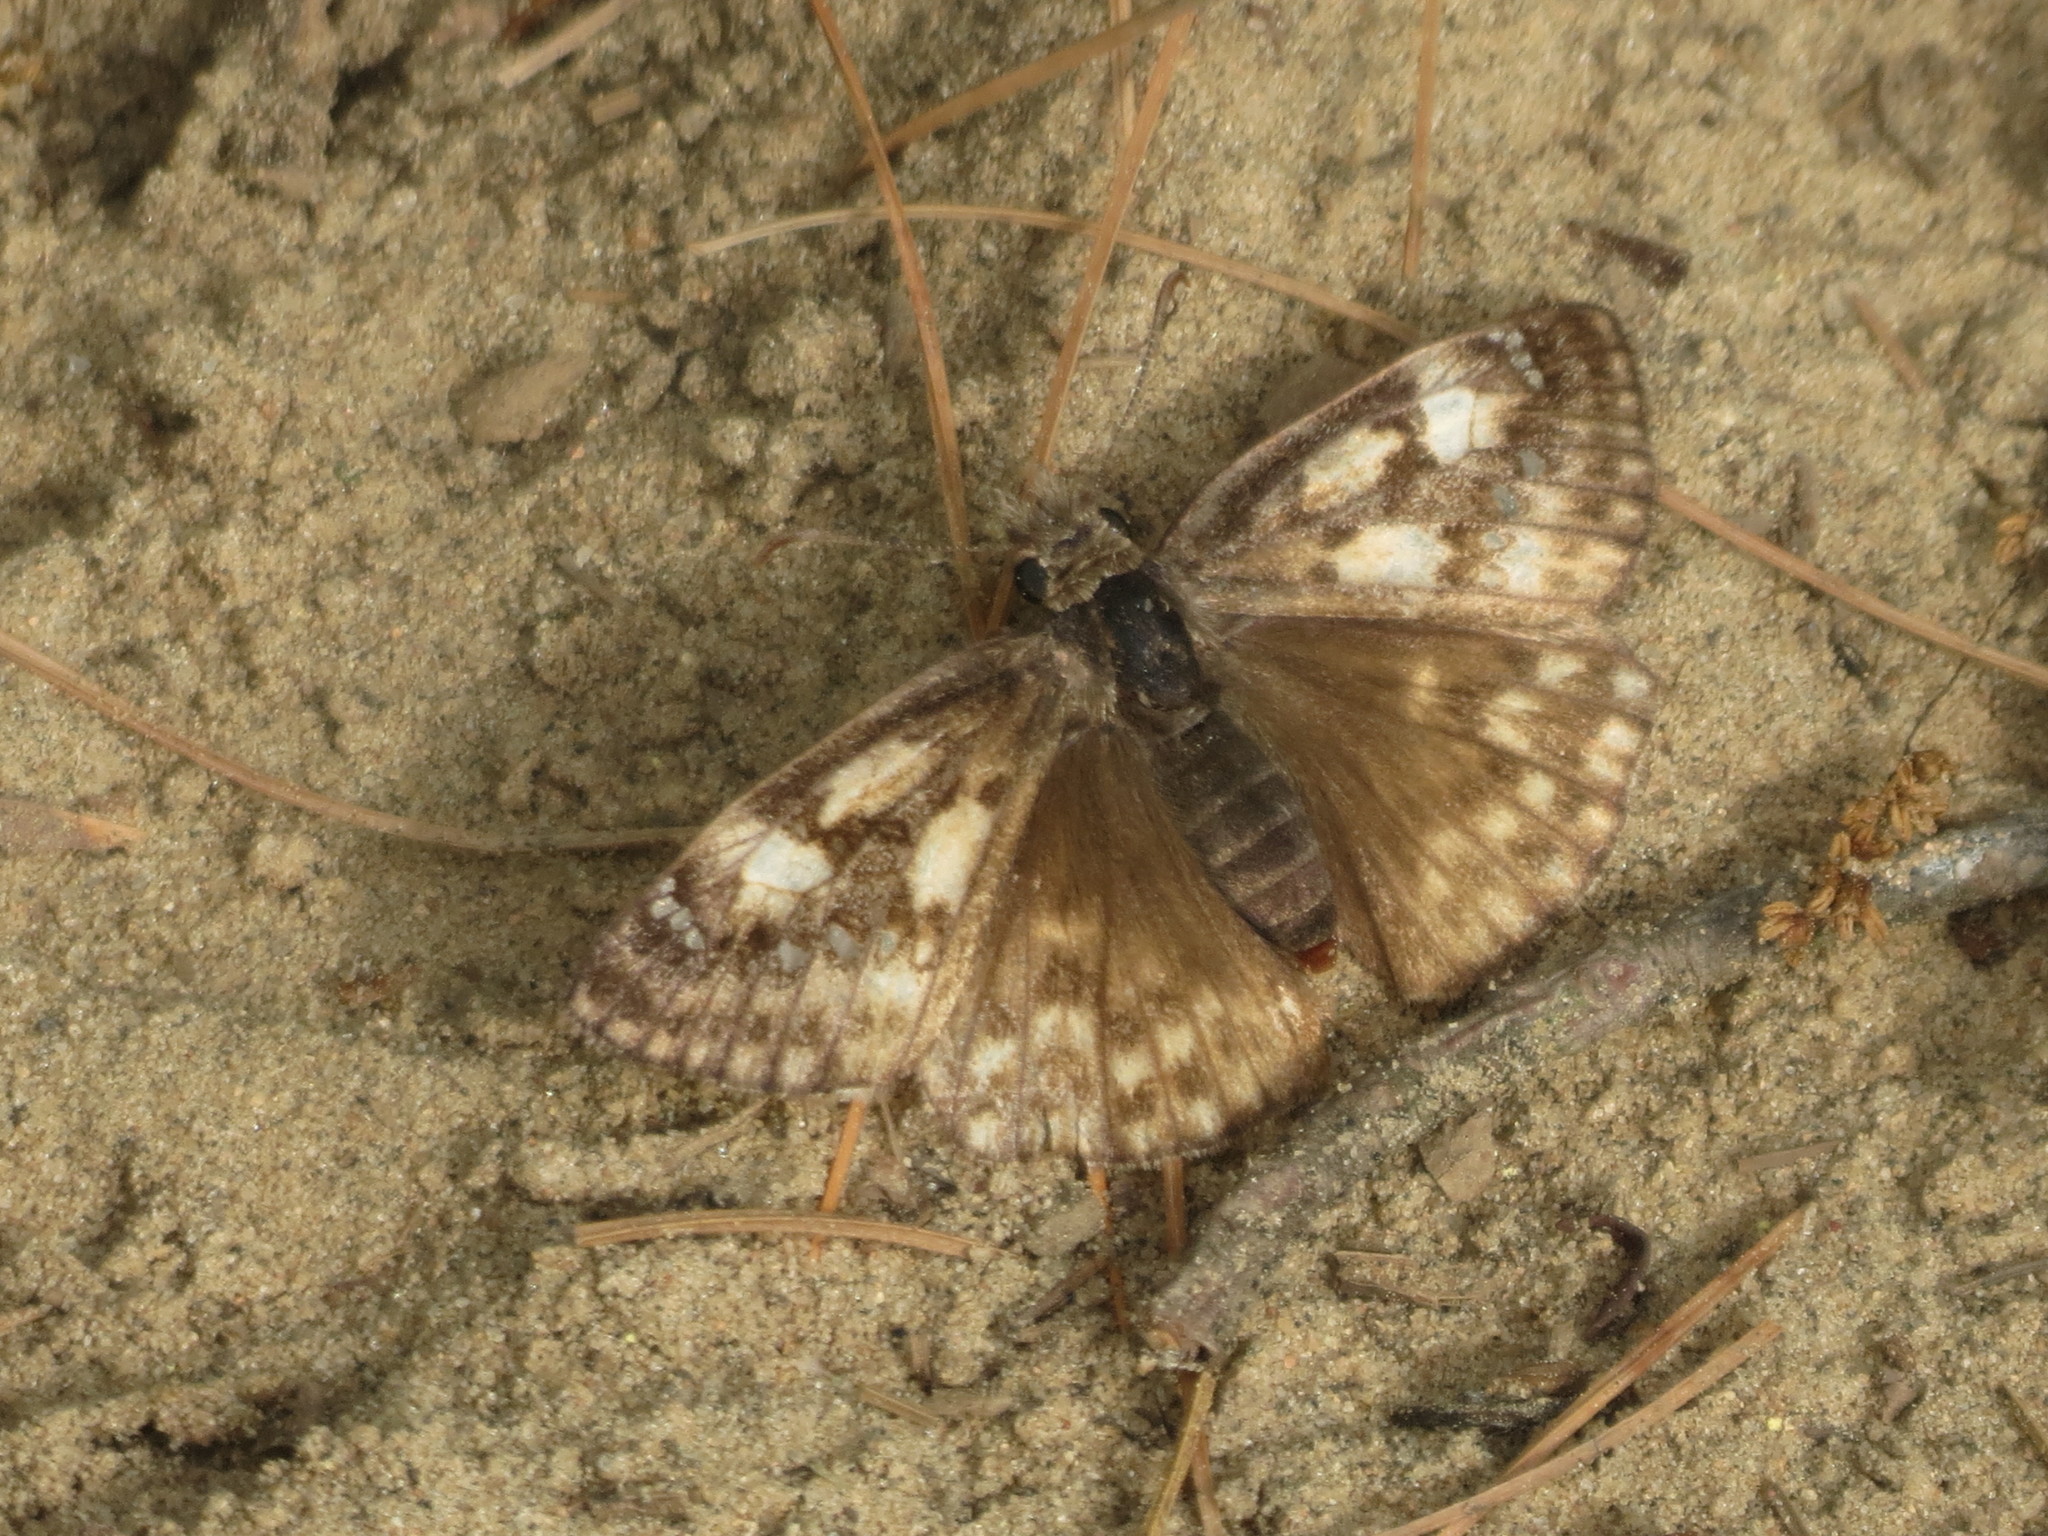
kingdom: Animalia
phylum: Arthropoda
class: Insecta
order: Lepidoptera
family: Hesperiidae
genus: Erynnis
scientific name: Erynnis juvenalis
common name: Juvenal's duskywing
